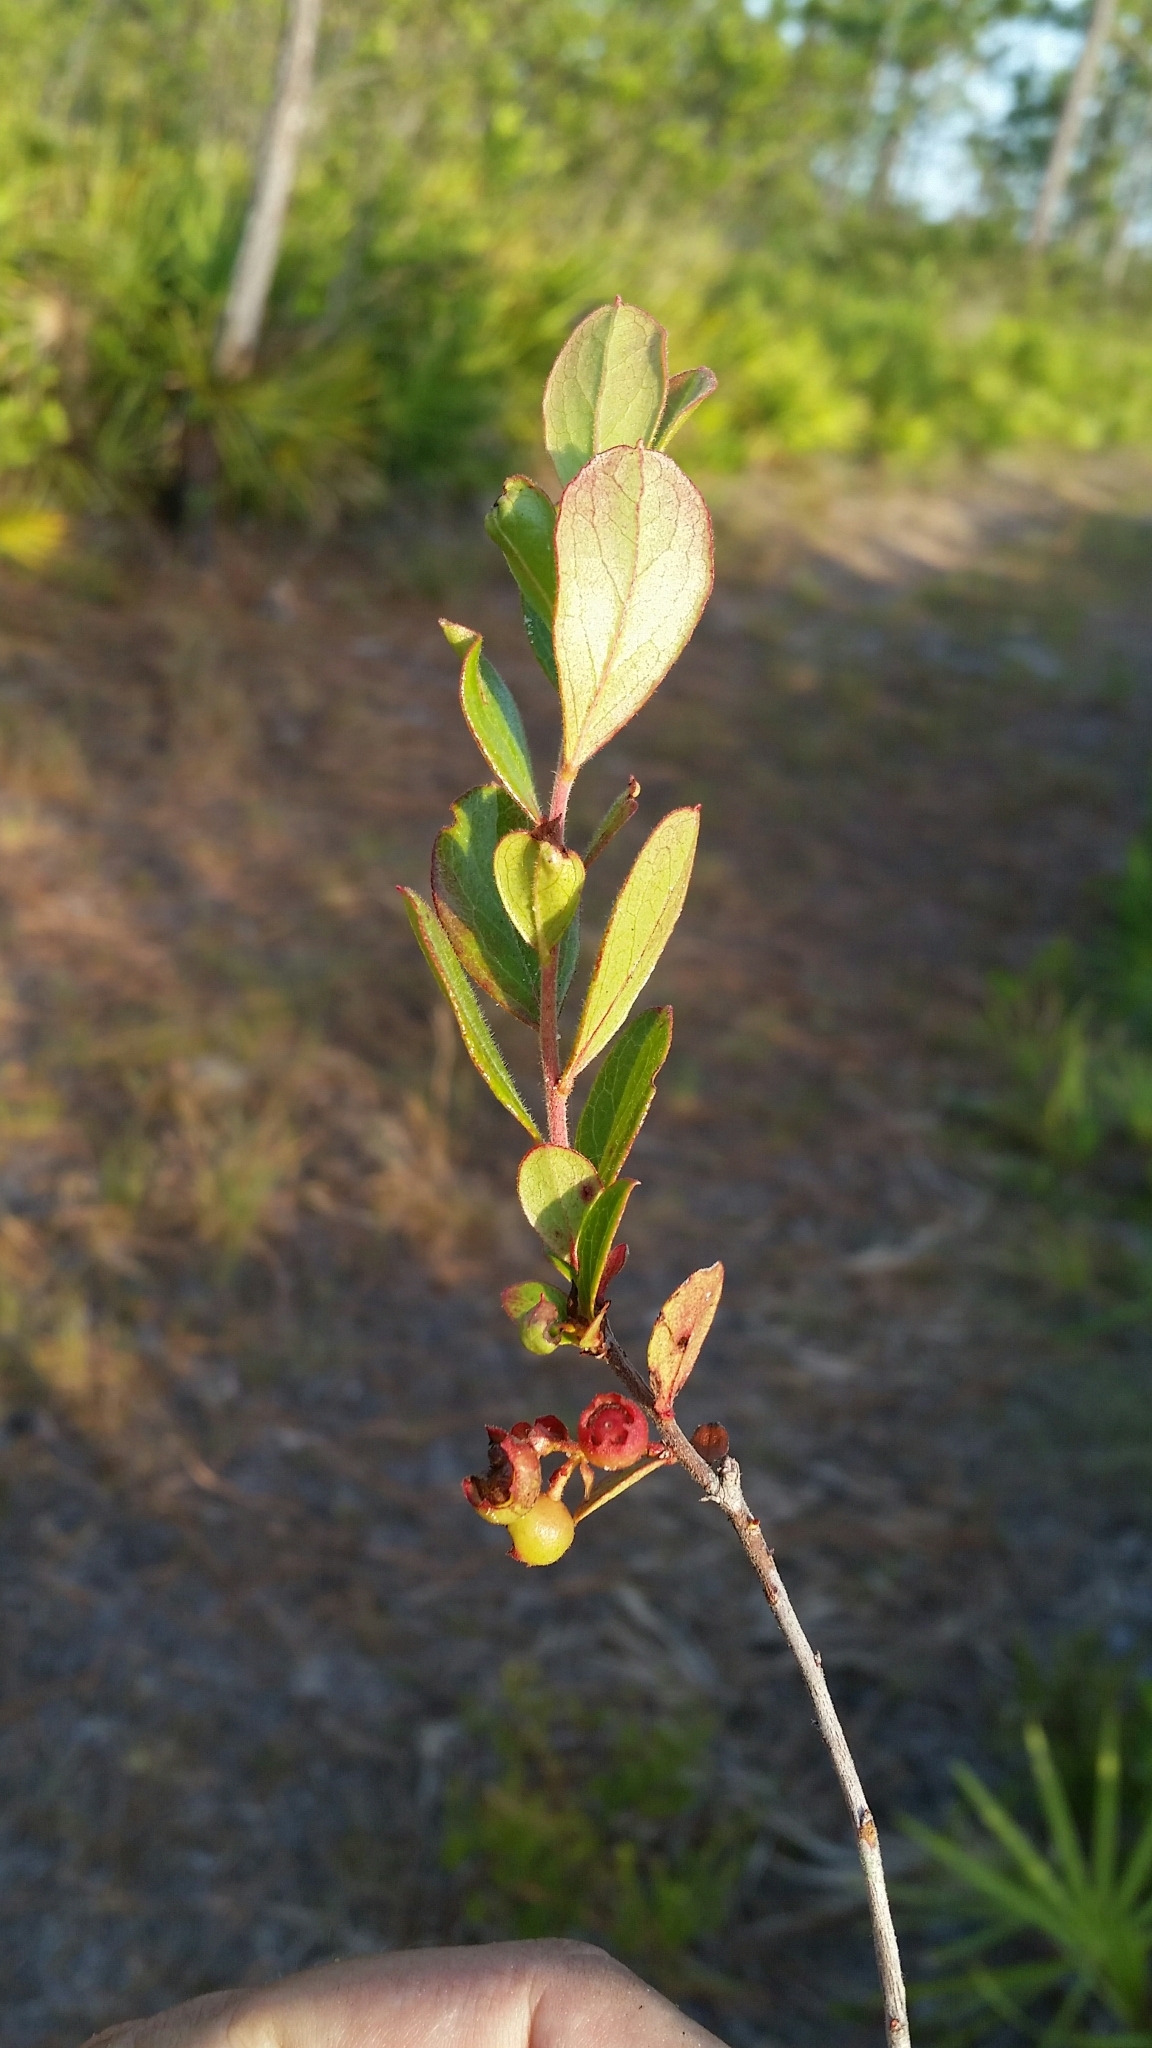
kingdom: Plantae
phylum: Tracheophyta
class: Magnoliopsida
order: Ericales
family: Ericaceae
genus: Gaylussacia
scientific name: Gaylussacia dumosa
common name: Dwarf huckleberry
